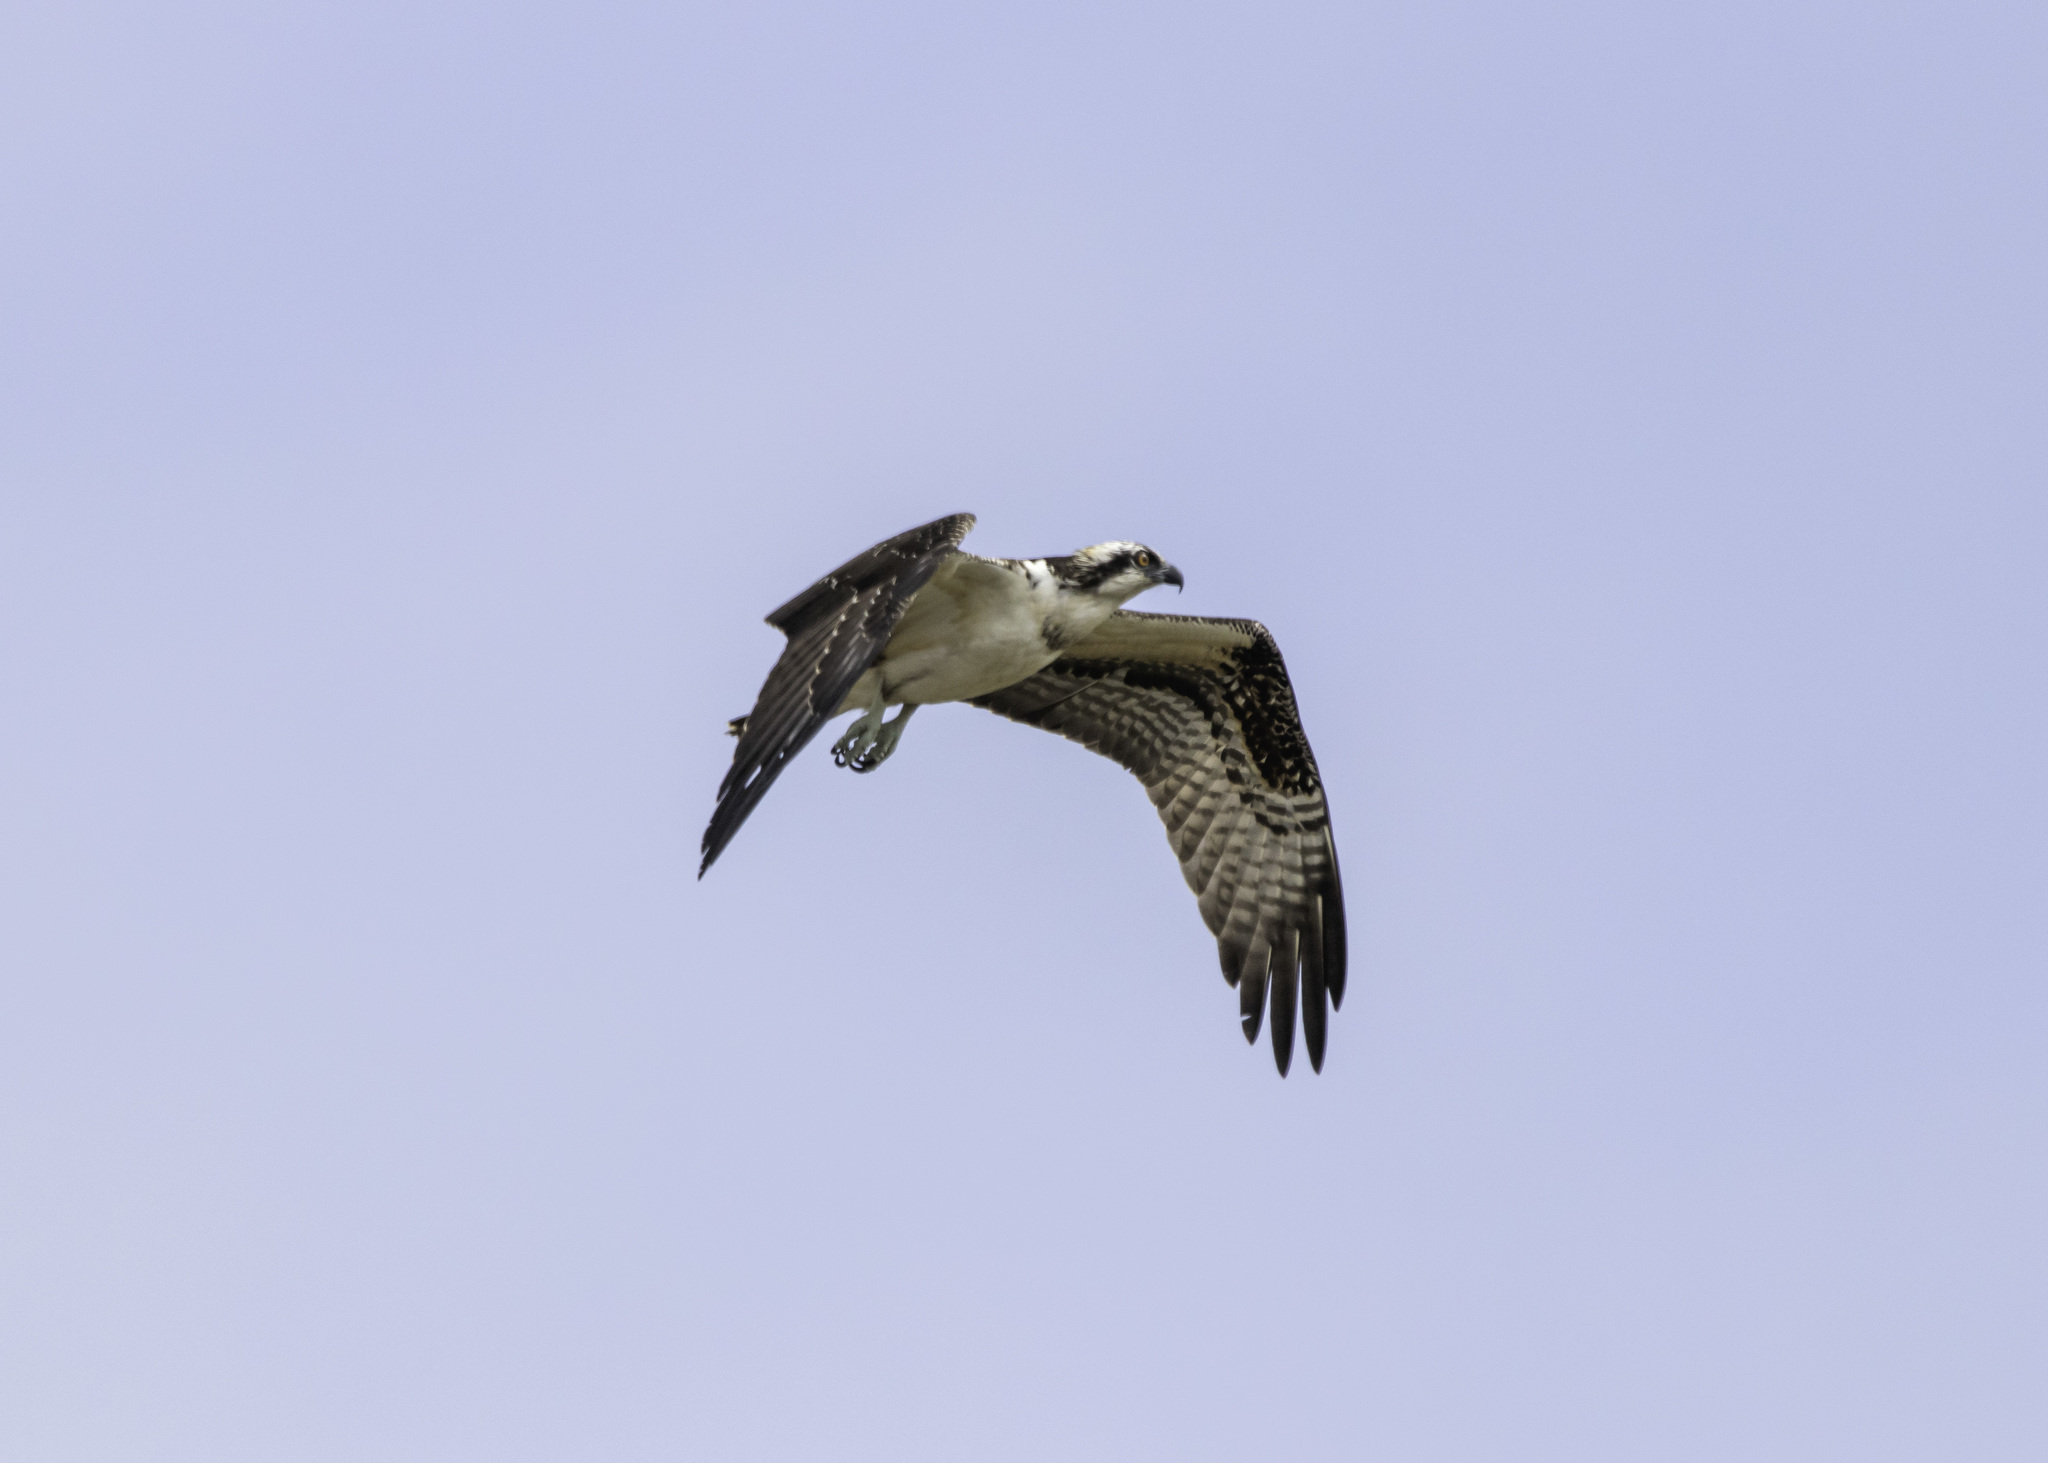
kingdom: Animalia
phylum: Chordata
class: Aves
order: Accipitriformes
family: Pandionidae
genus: Pandion
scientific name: Pandion haliaetus
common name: Osprey
